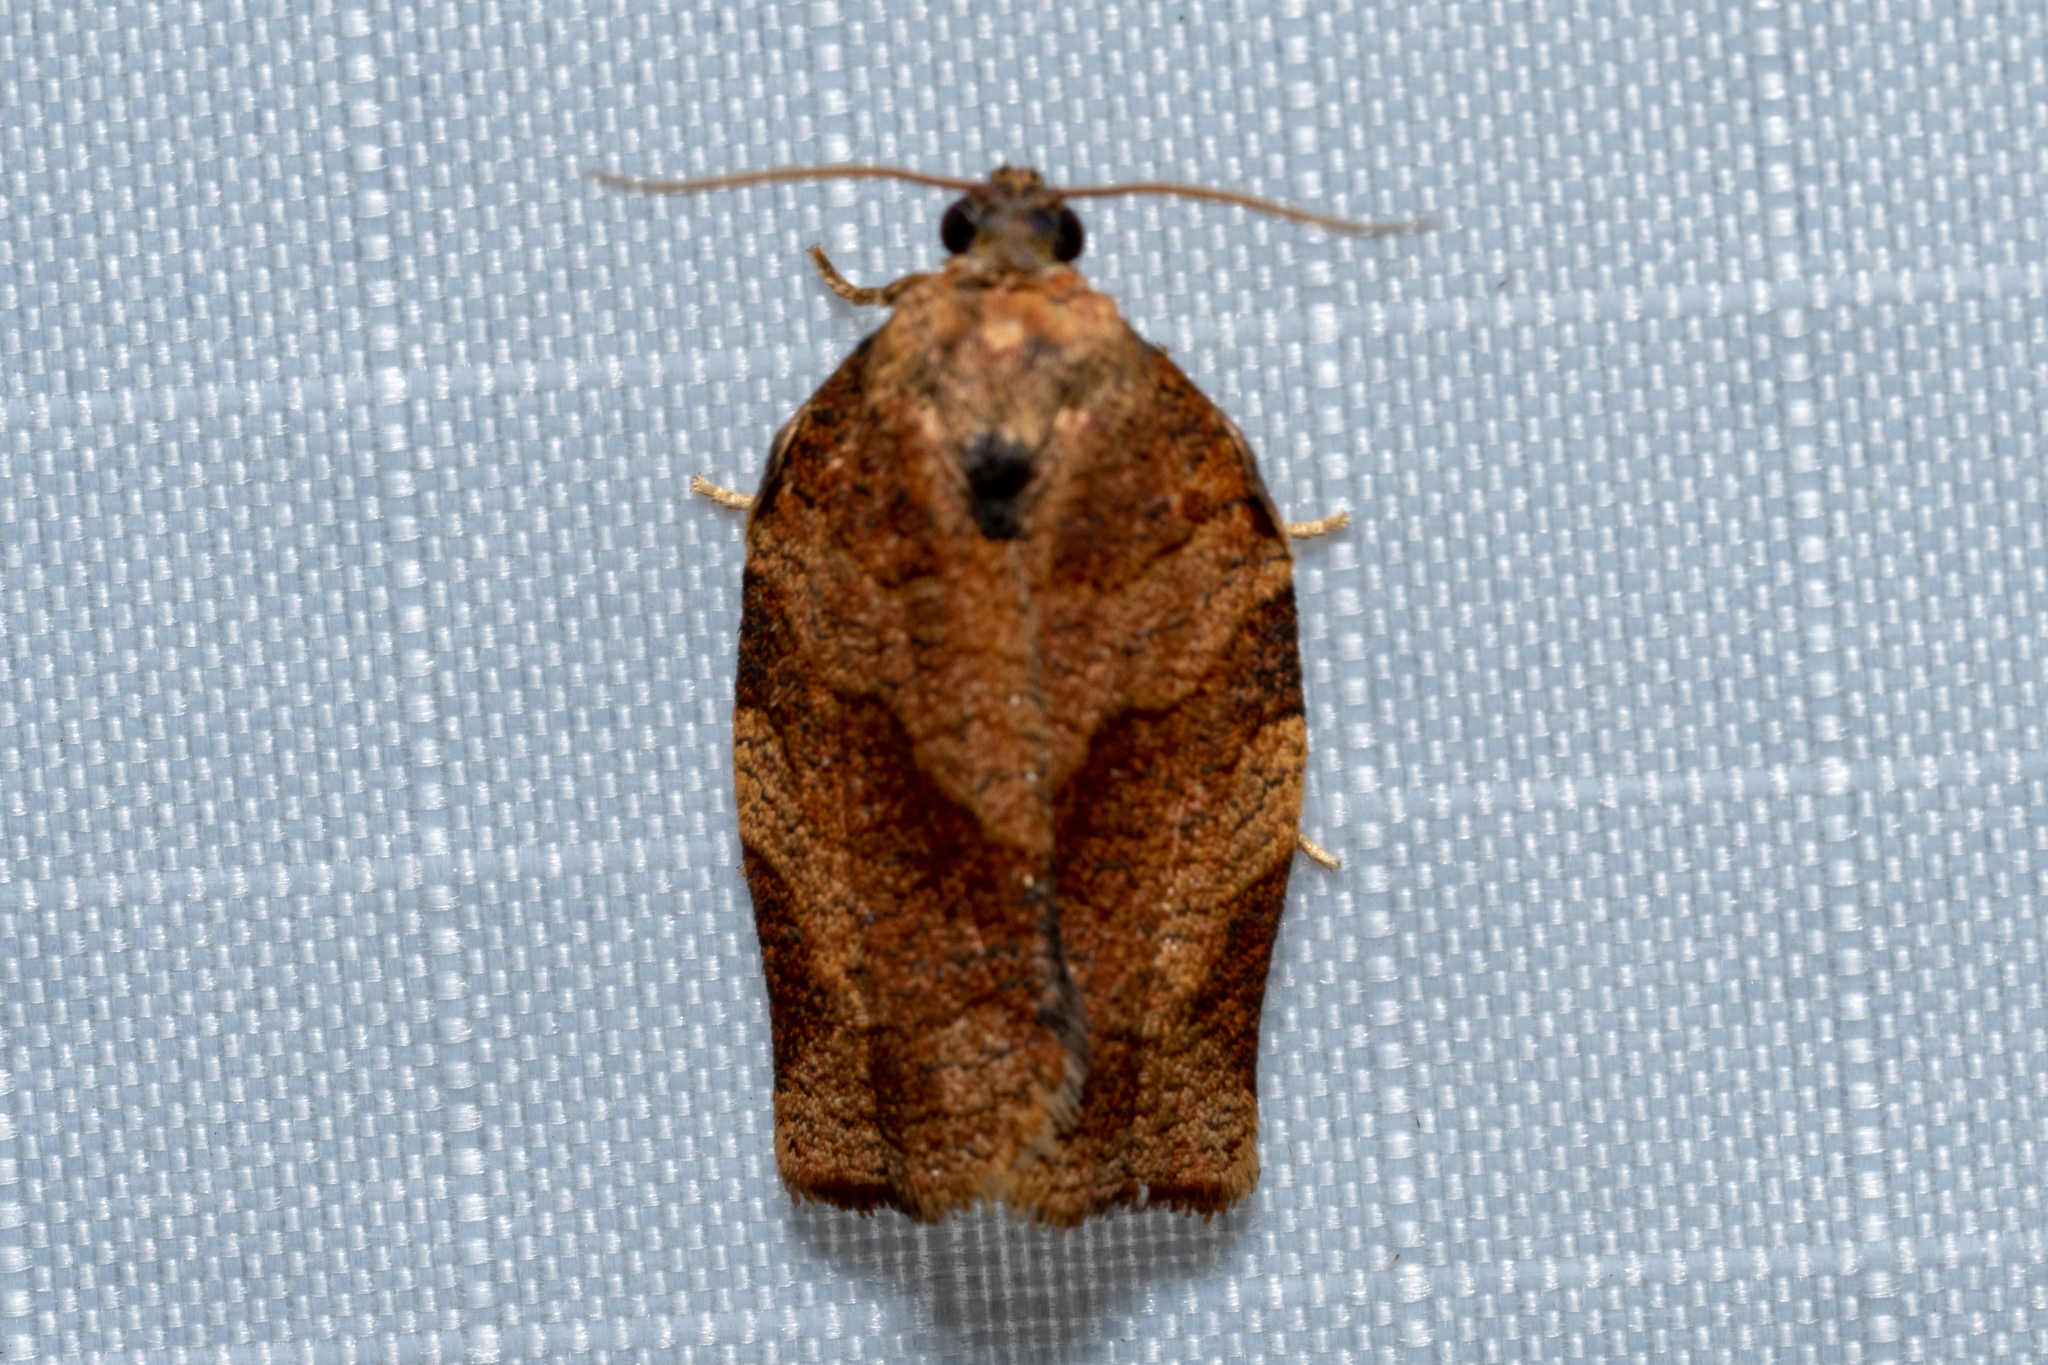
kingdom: Animalia
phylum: Arthropoda
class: Insecta
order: Lepidoptera
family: Tortricidae
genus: Choristoneura
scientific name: Choristoneura rosaceana
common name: Oblique-banded leafroller moth
